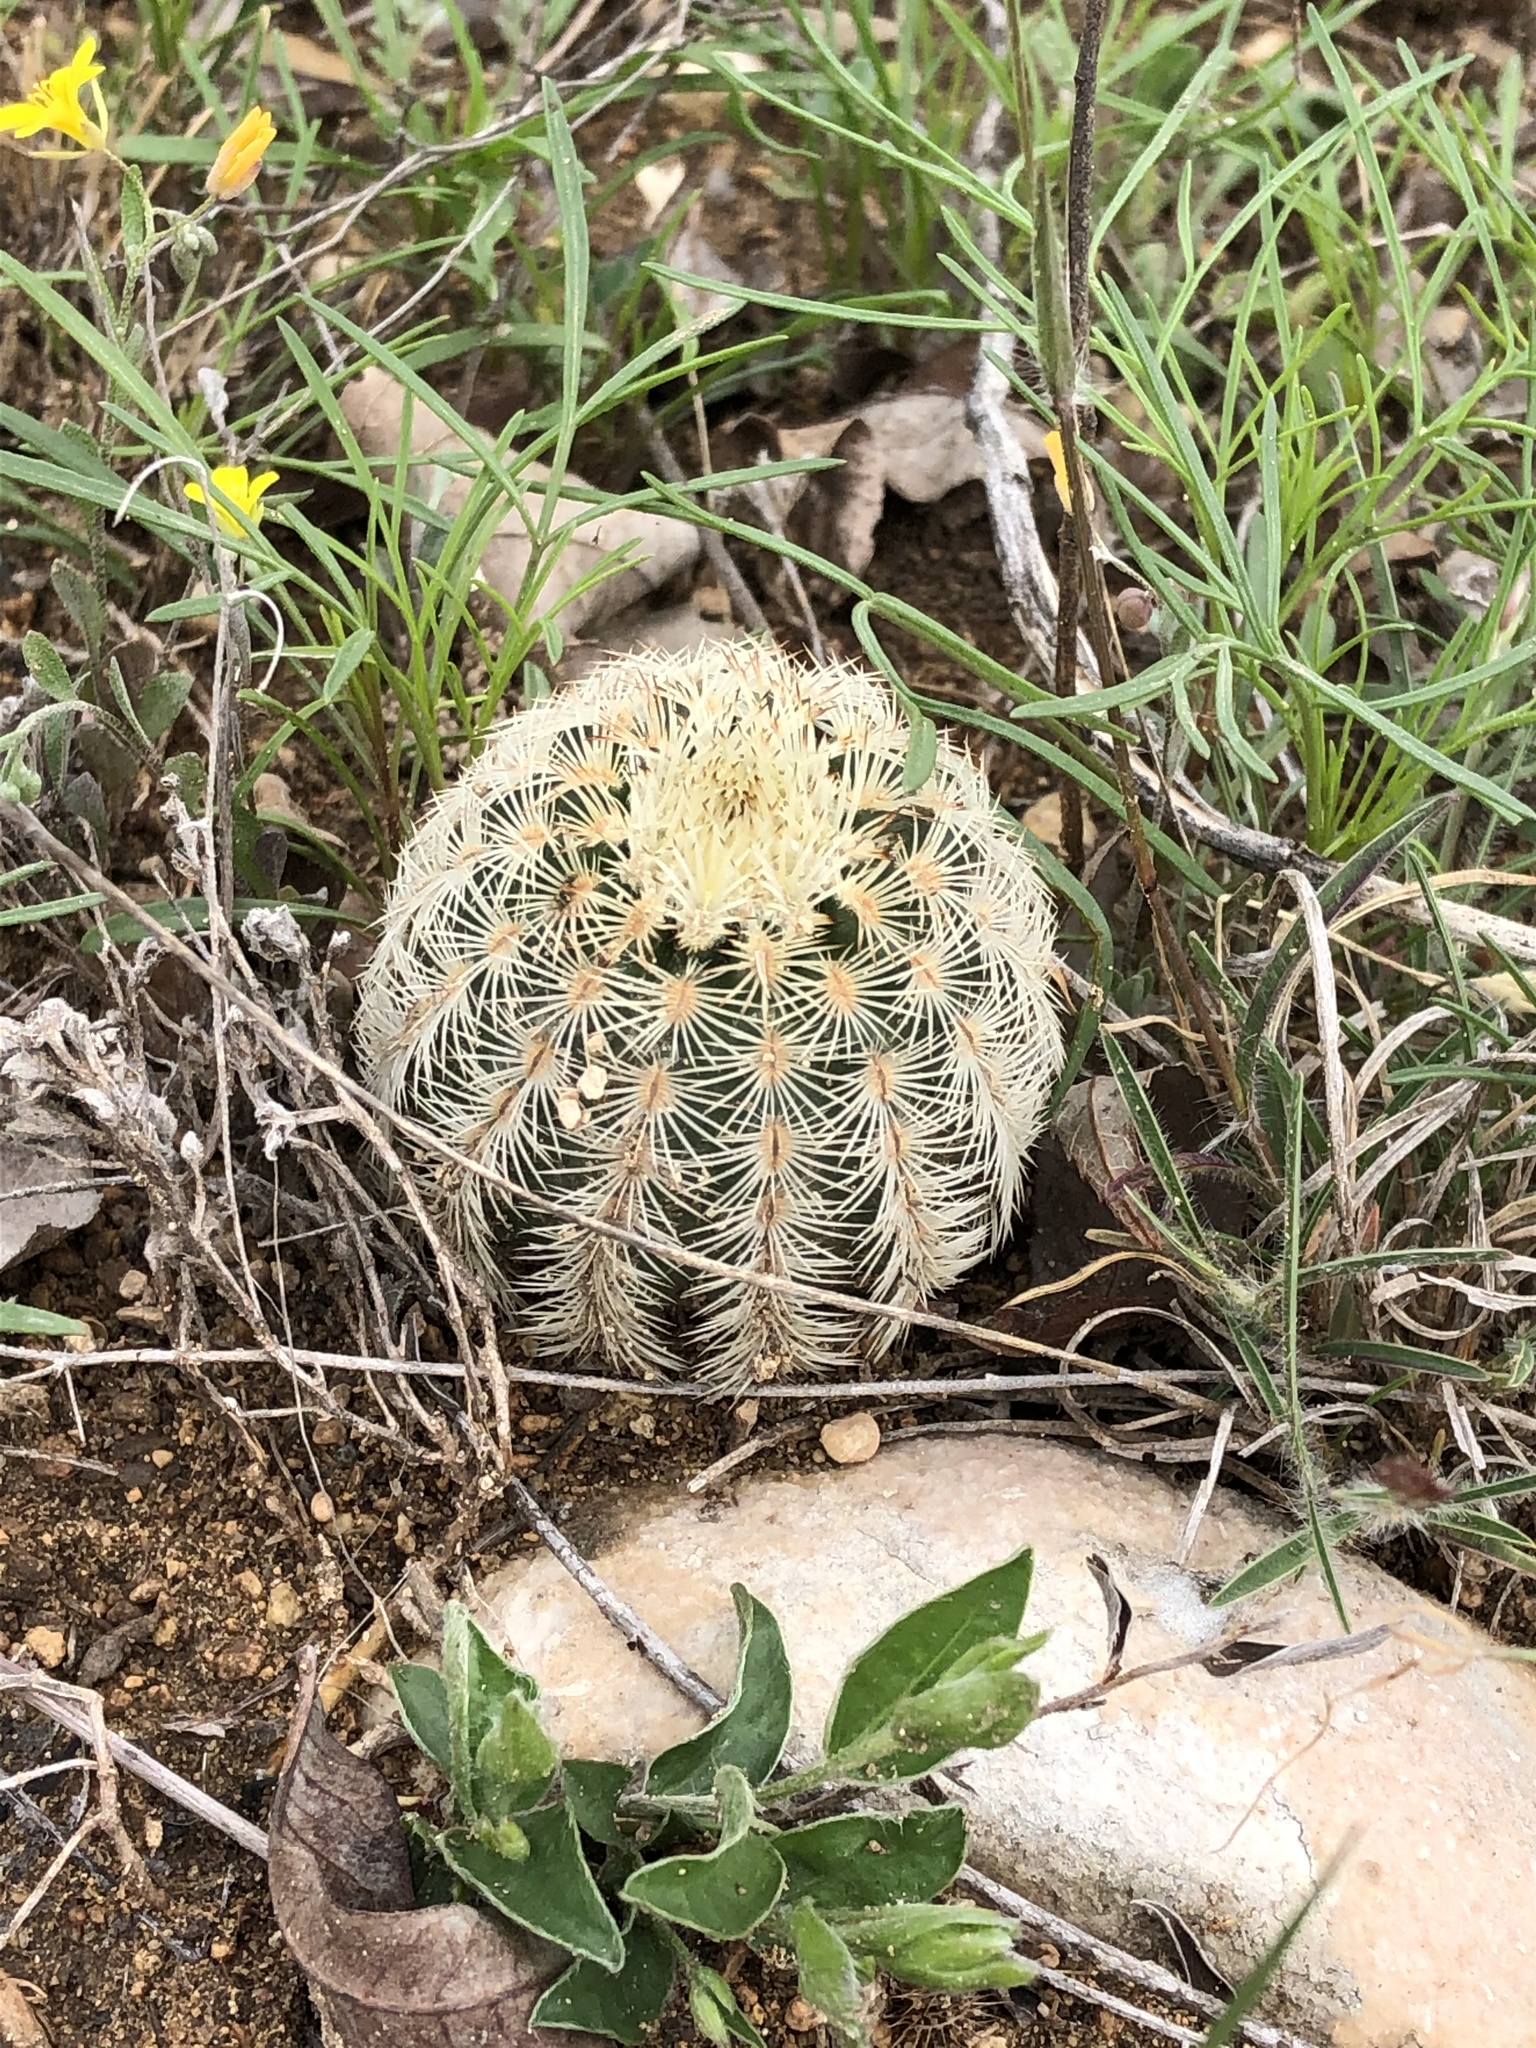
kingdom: Plantae
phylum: Tracheophyta
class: Magnoliopsida
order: Caryophyllales
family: Cactaceae
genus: Echinocereus
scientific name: Echinocereus reichenbachii
